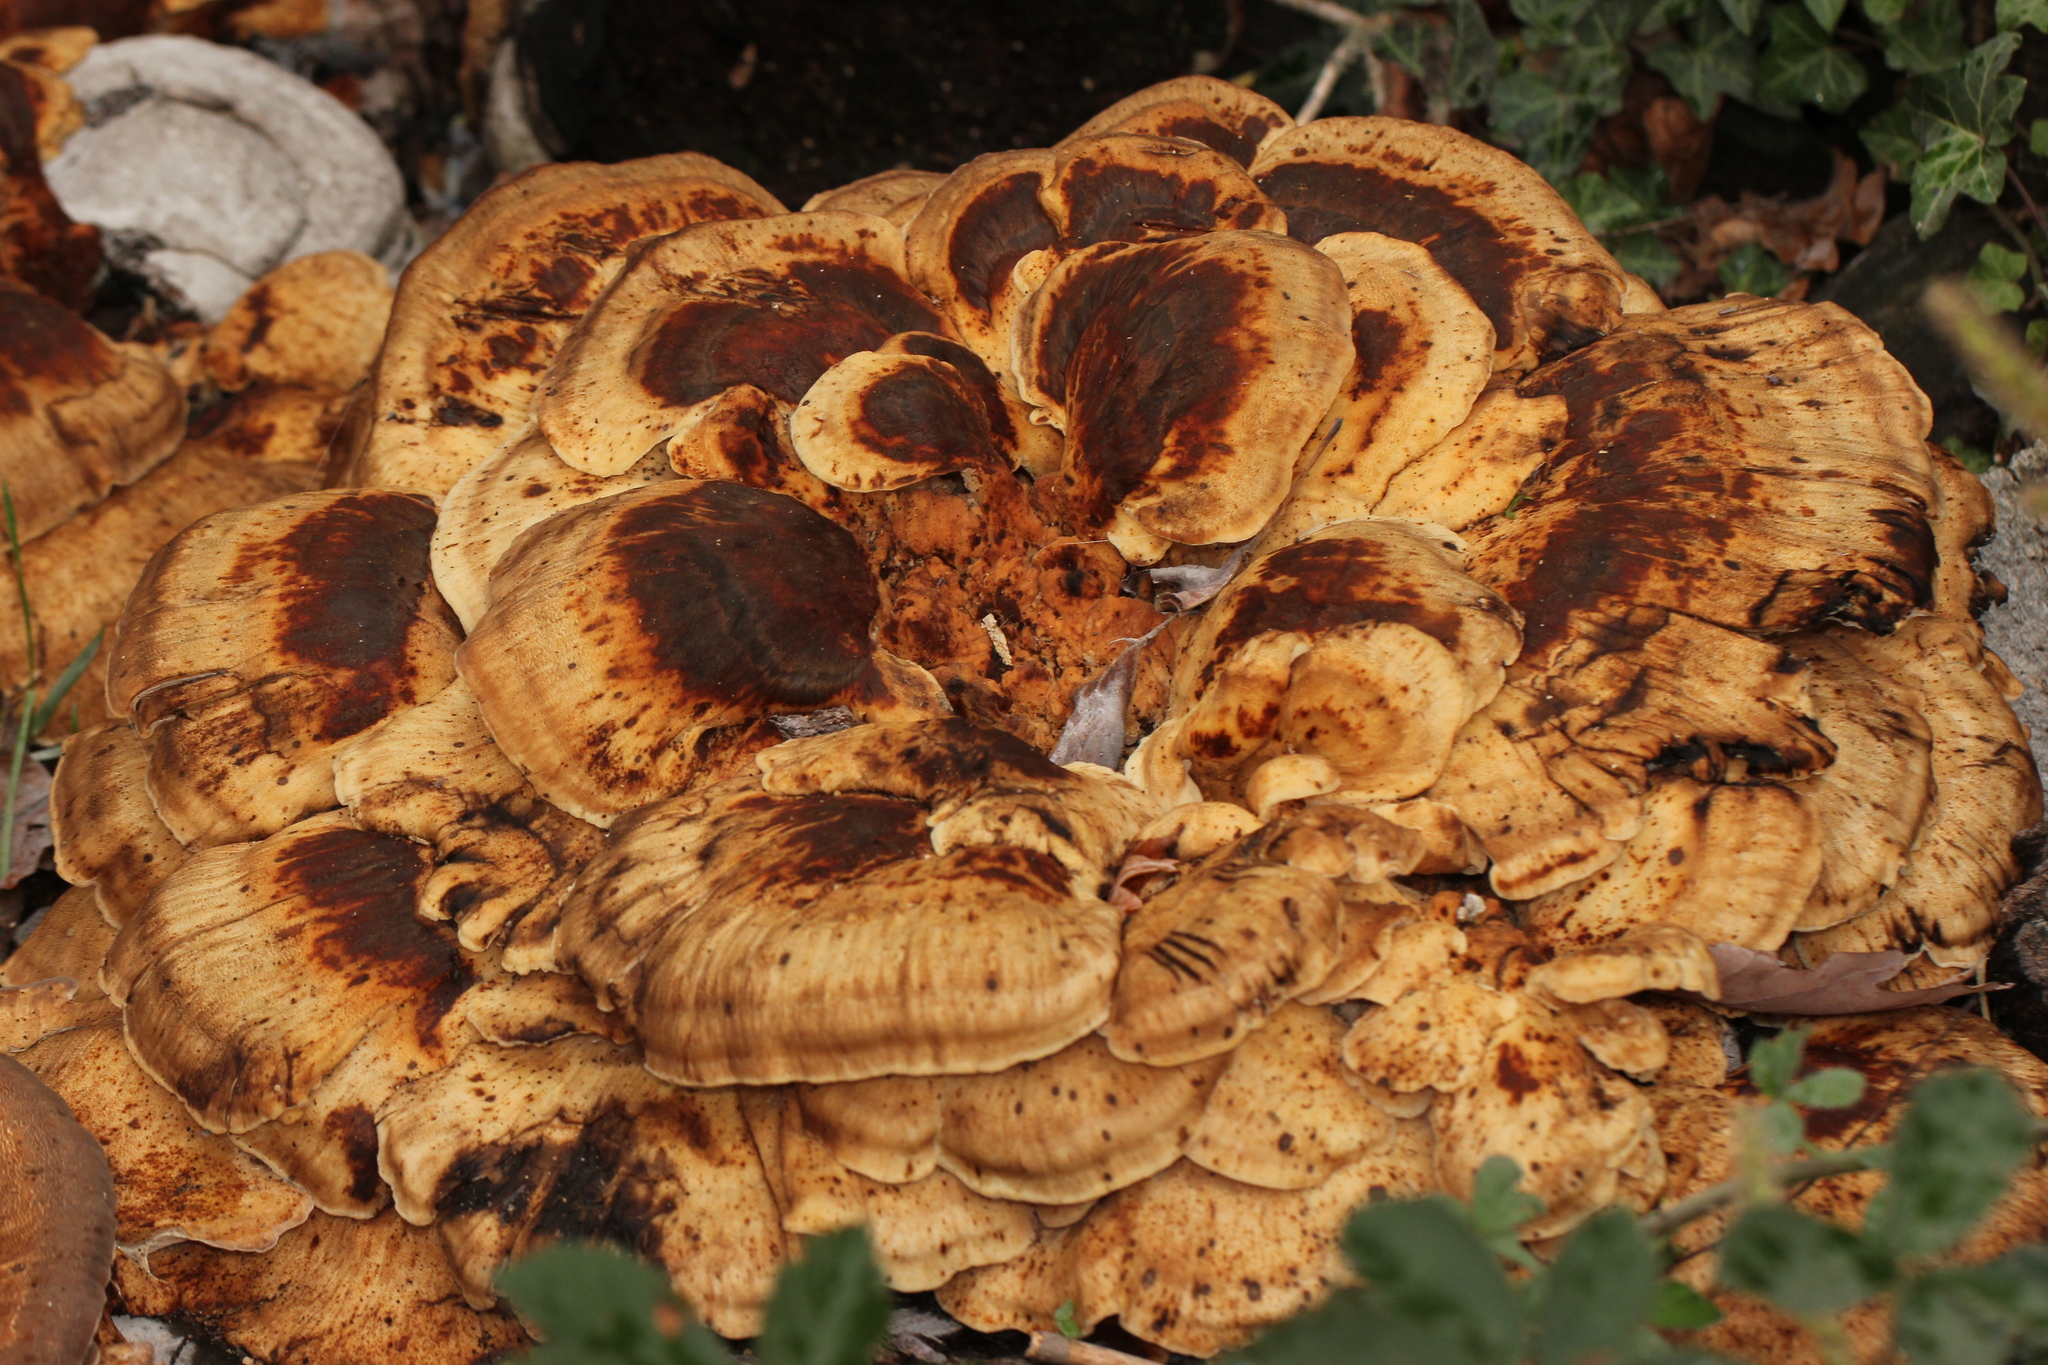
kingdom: Fungi
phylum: Basidiomycota
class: Agaricomycetes
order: Polyporales
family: Meripilaceae
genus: Meripilus
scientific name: Meripilus giganteus
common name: Giant polypore
